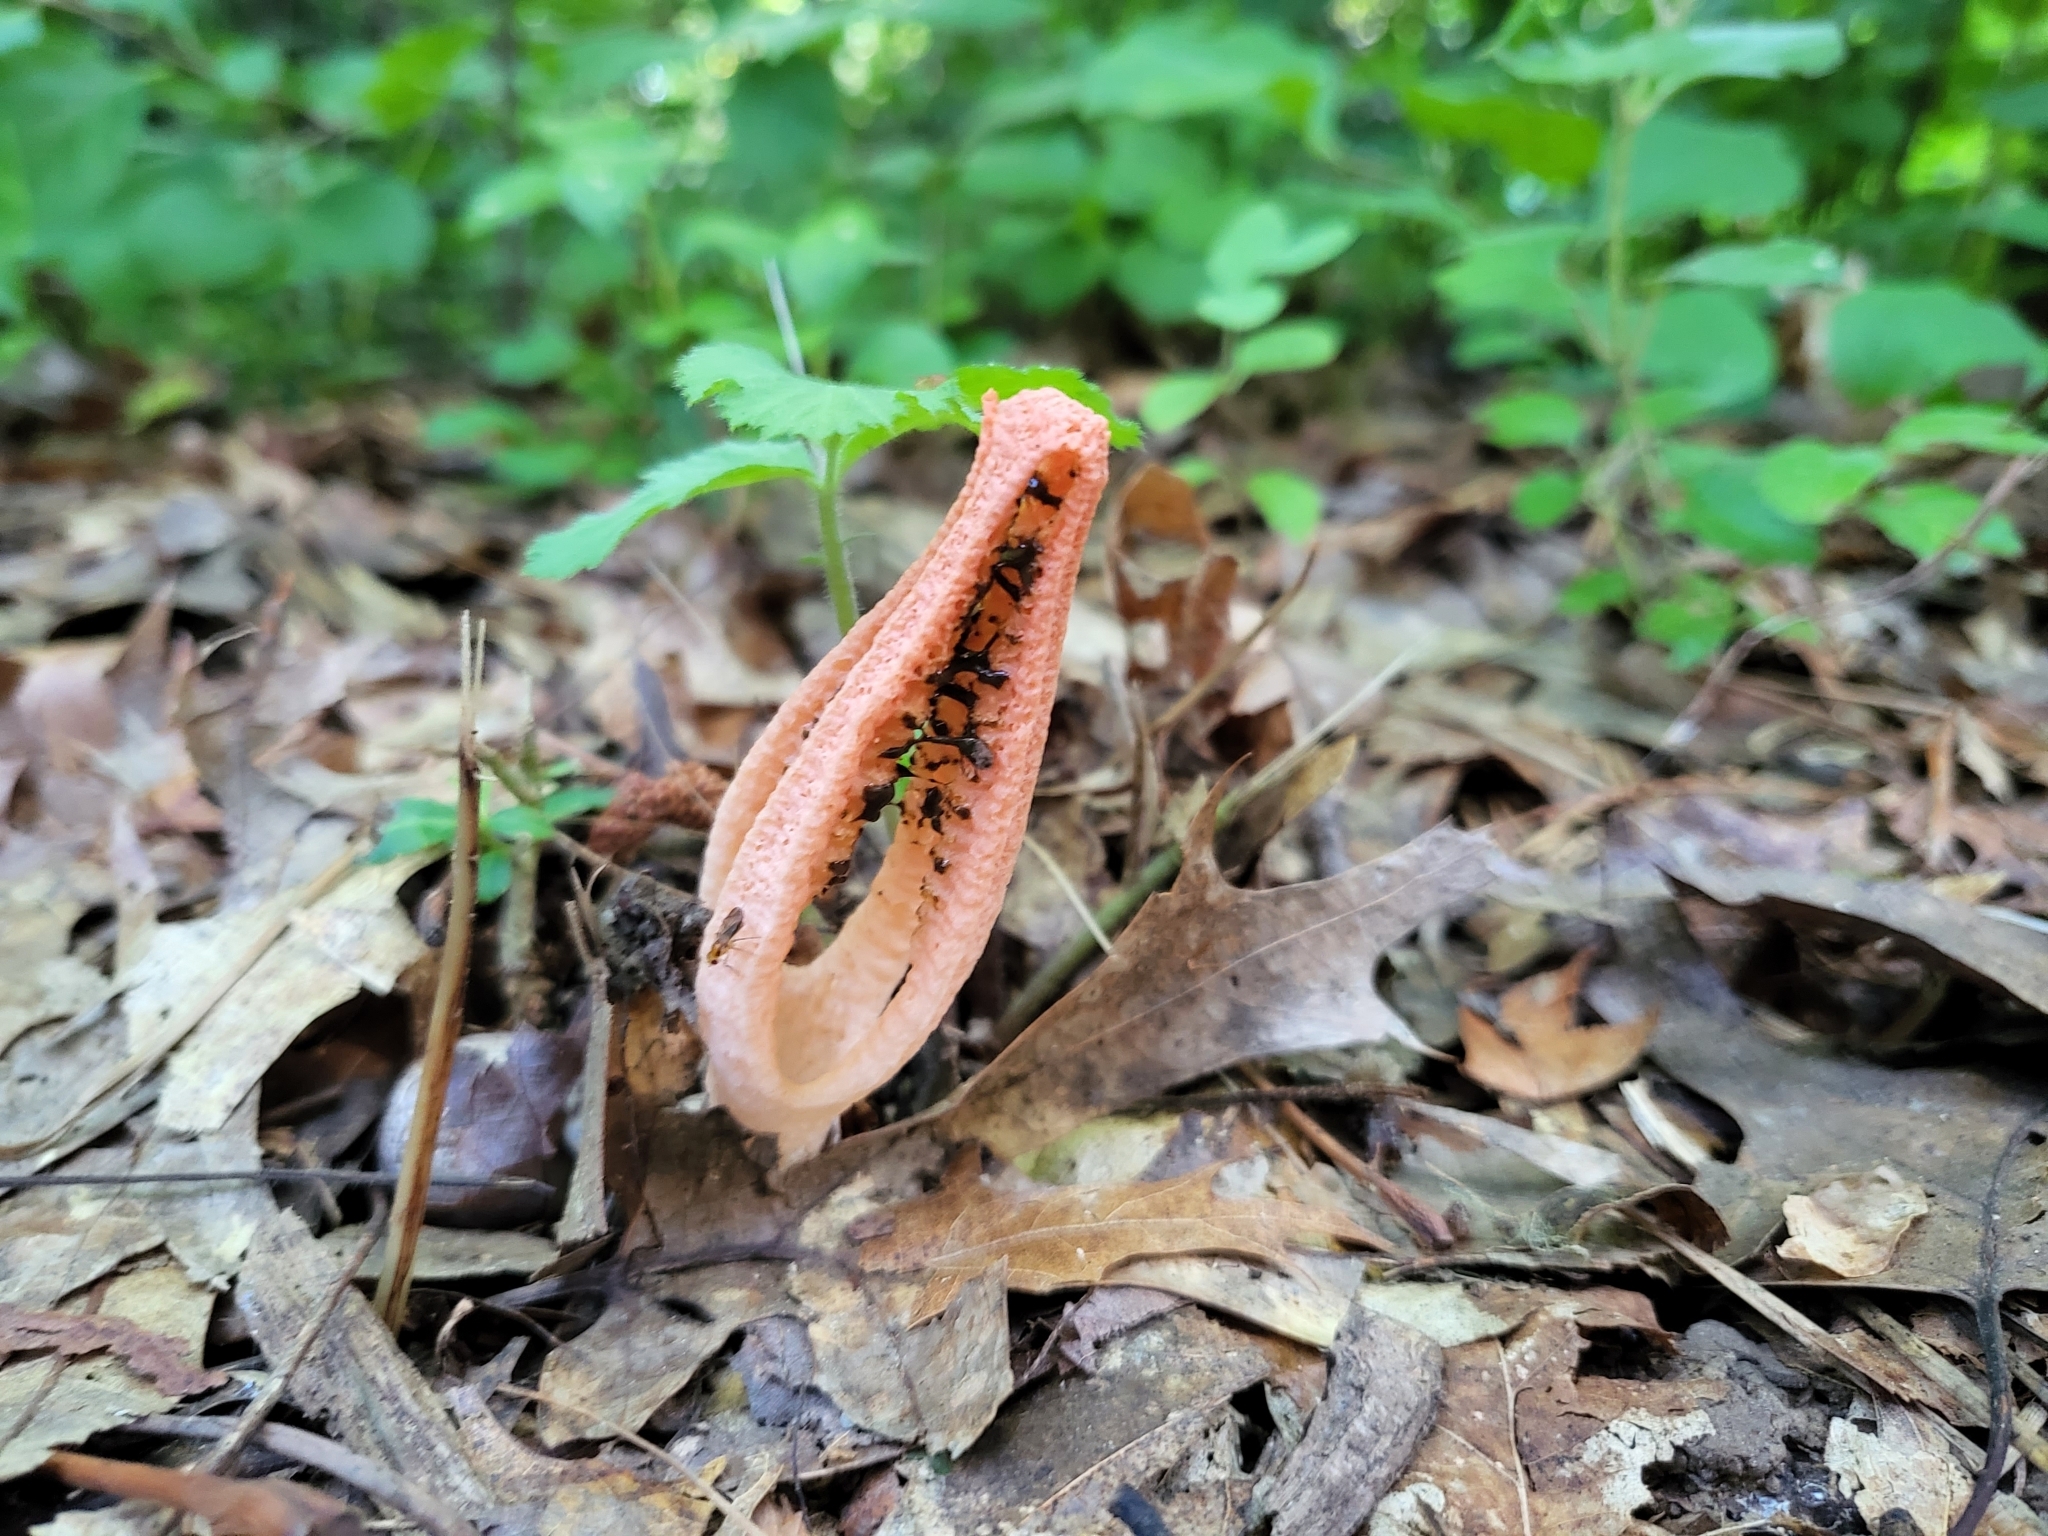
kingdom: Fungi
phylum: Basidiomycota
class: Agaricomycetes
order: Phallales
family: Phallaceae
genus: Pseudocolus
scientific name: Pseudocolus fusiformis
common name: Stinky squid
